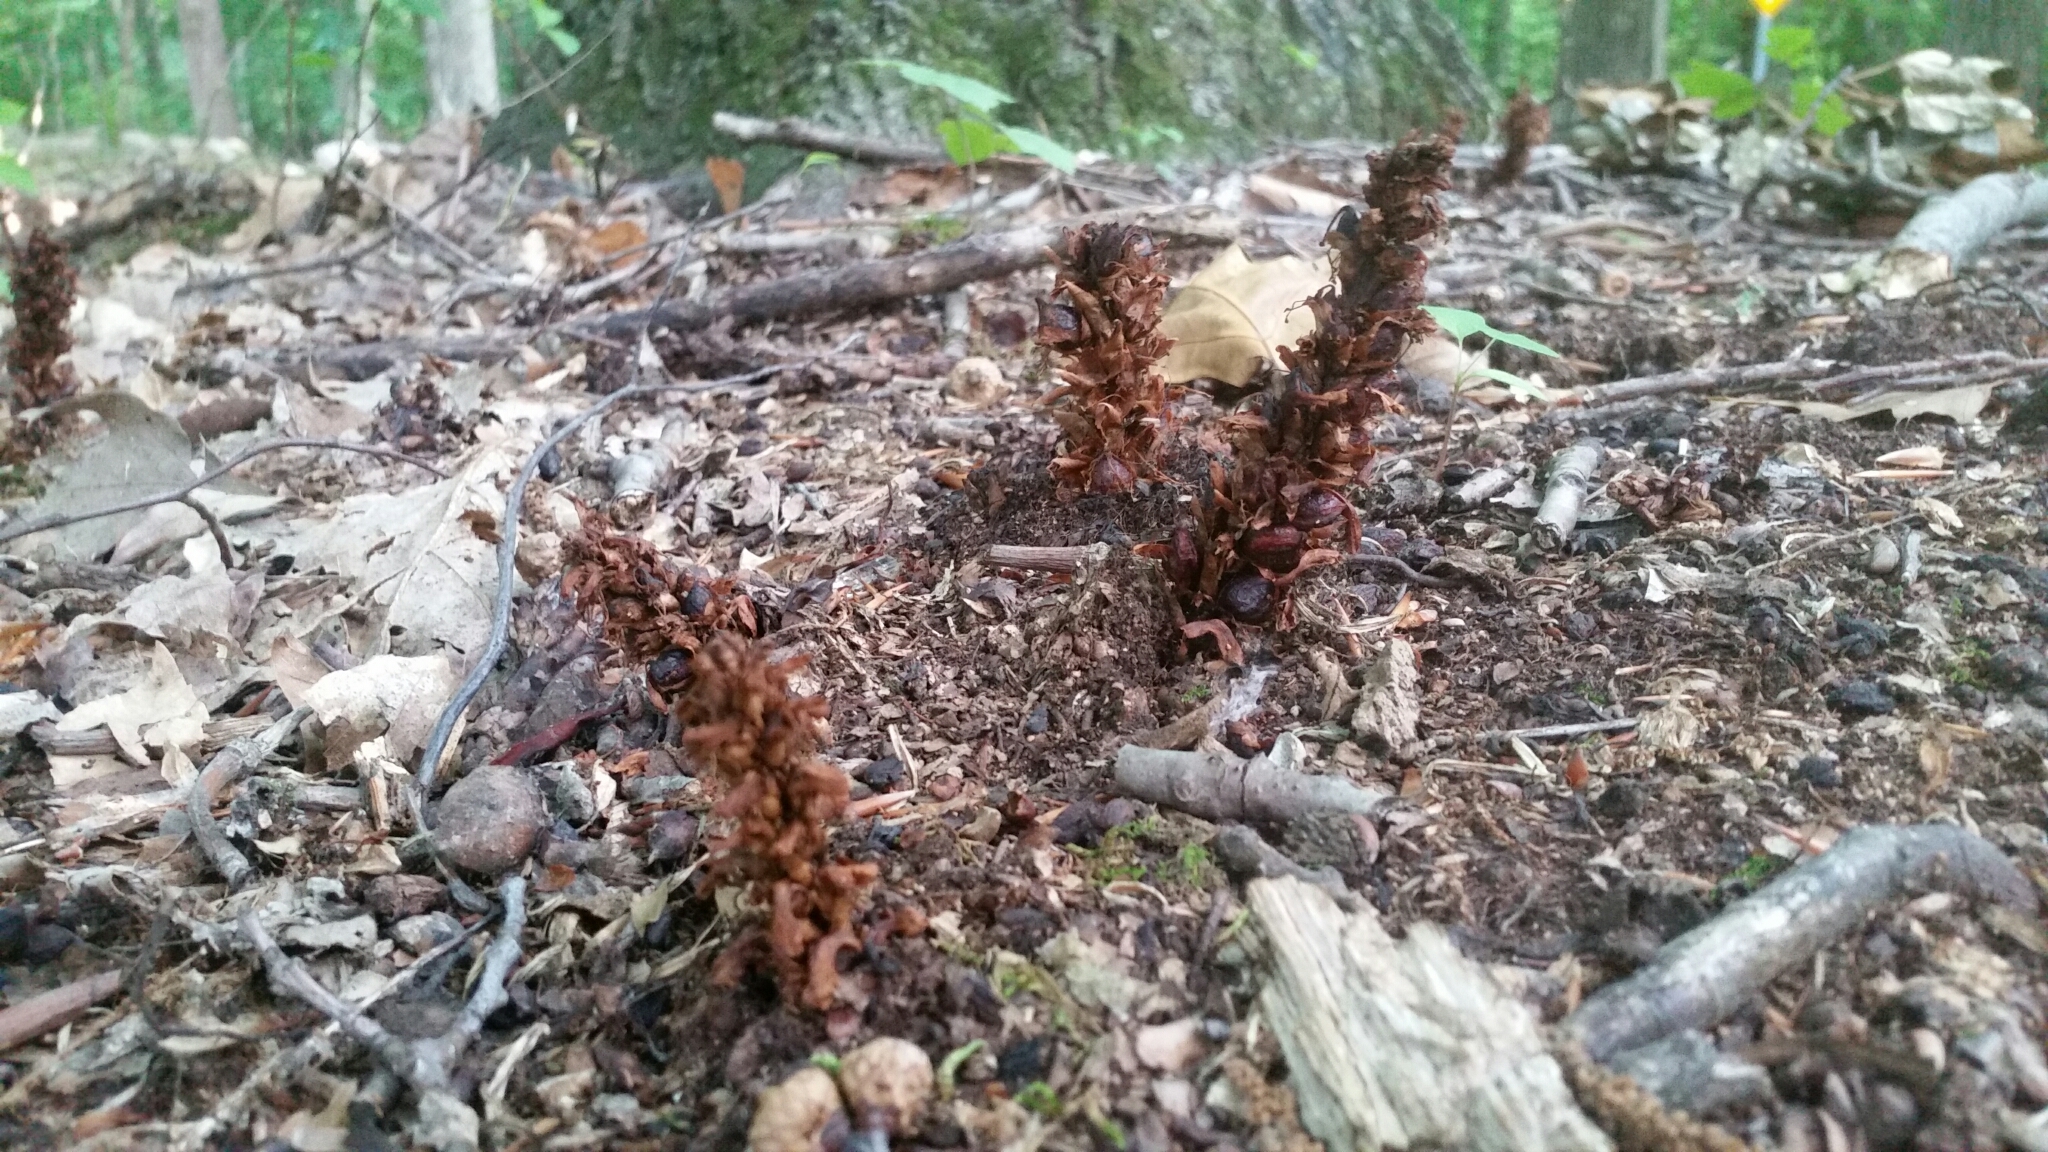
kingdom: Plantae
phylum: Tracheophyta
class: Magnoliopsida
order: Lamiales
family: Orobanchaceae
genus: Conopholis
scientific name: Conopholis americana
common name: American cancer-root
